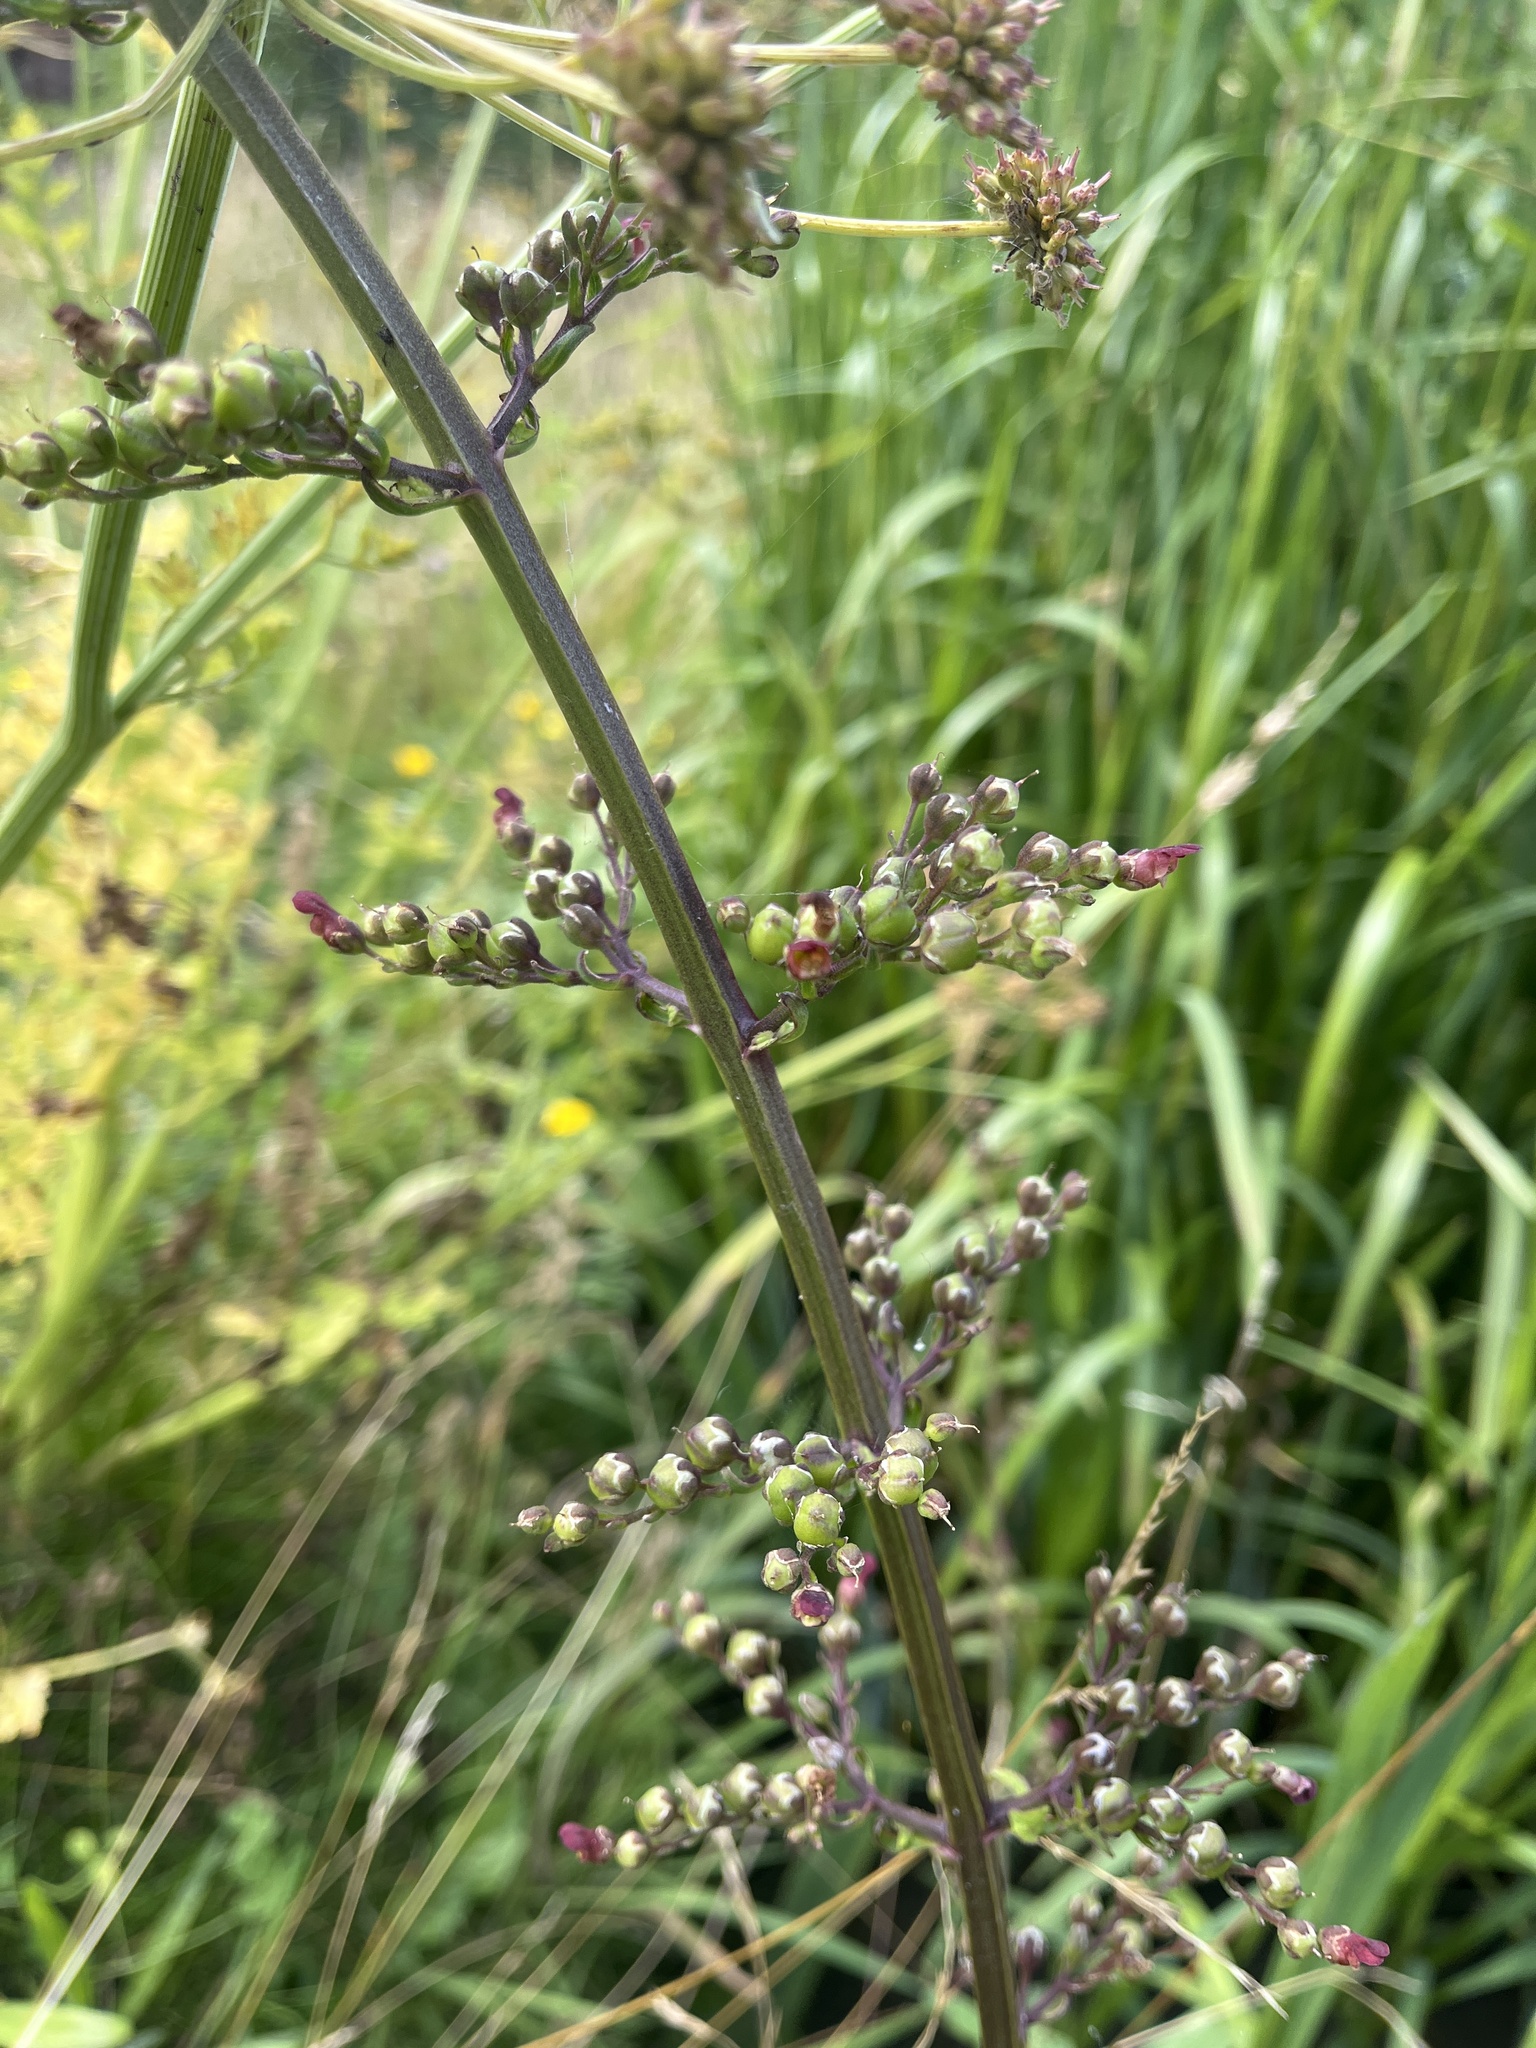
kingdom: Plantae
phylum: Tracheophyta
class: Magnoliopsida
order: Lamiales
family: Scrophulariaceae
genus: Scrophularia
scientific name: Scrophularia auriculata
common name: Water betony
